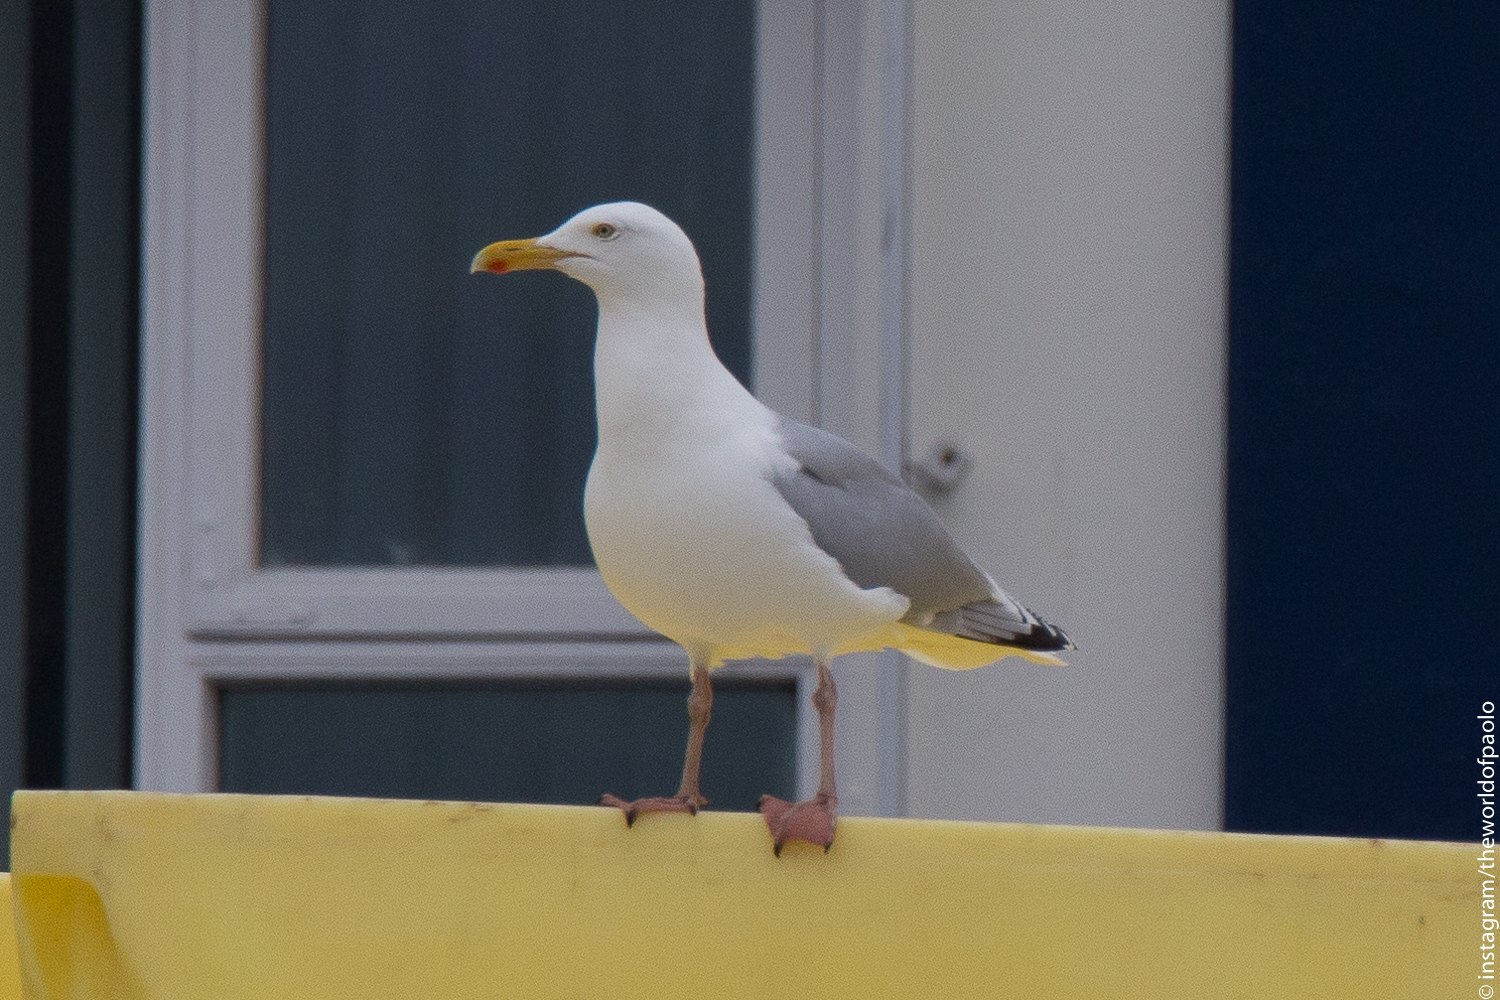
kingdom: Animalia
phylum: Chordata
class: Aves
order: Charadriiformes
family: Laridae
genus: Larus
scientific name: Larus argentatus
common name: Herring gull
